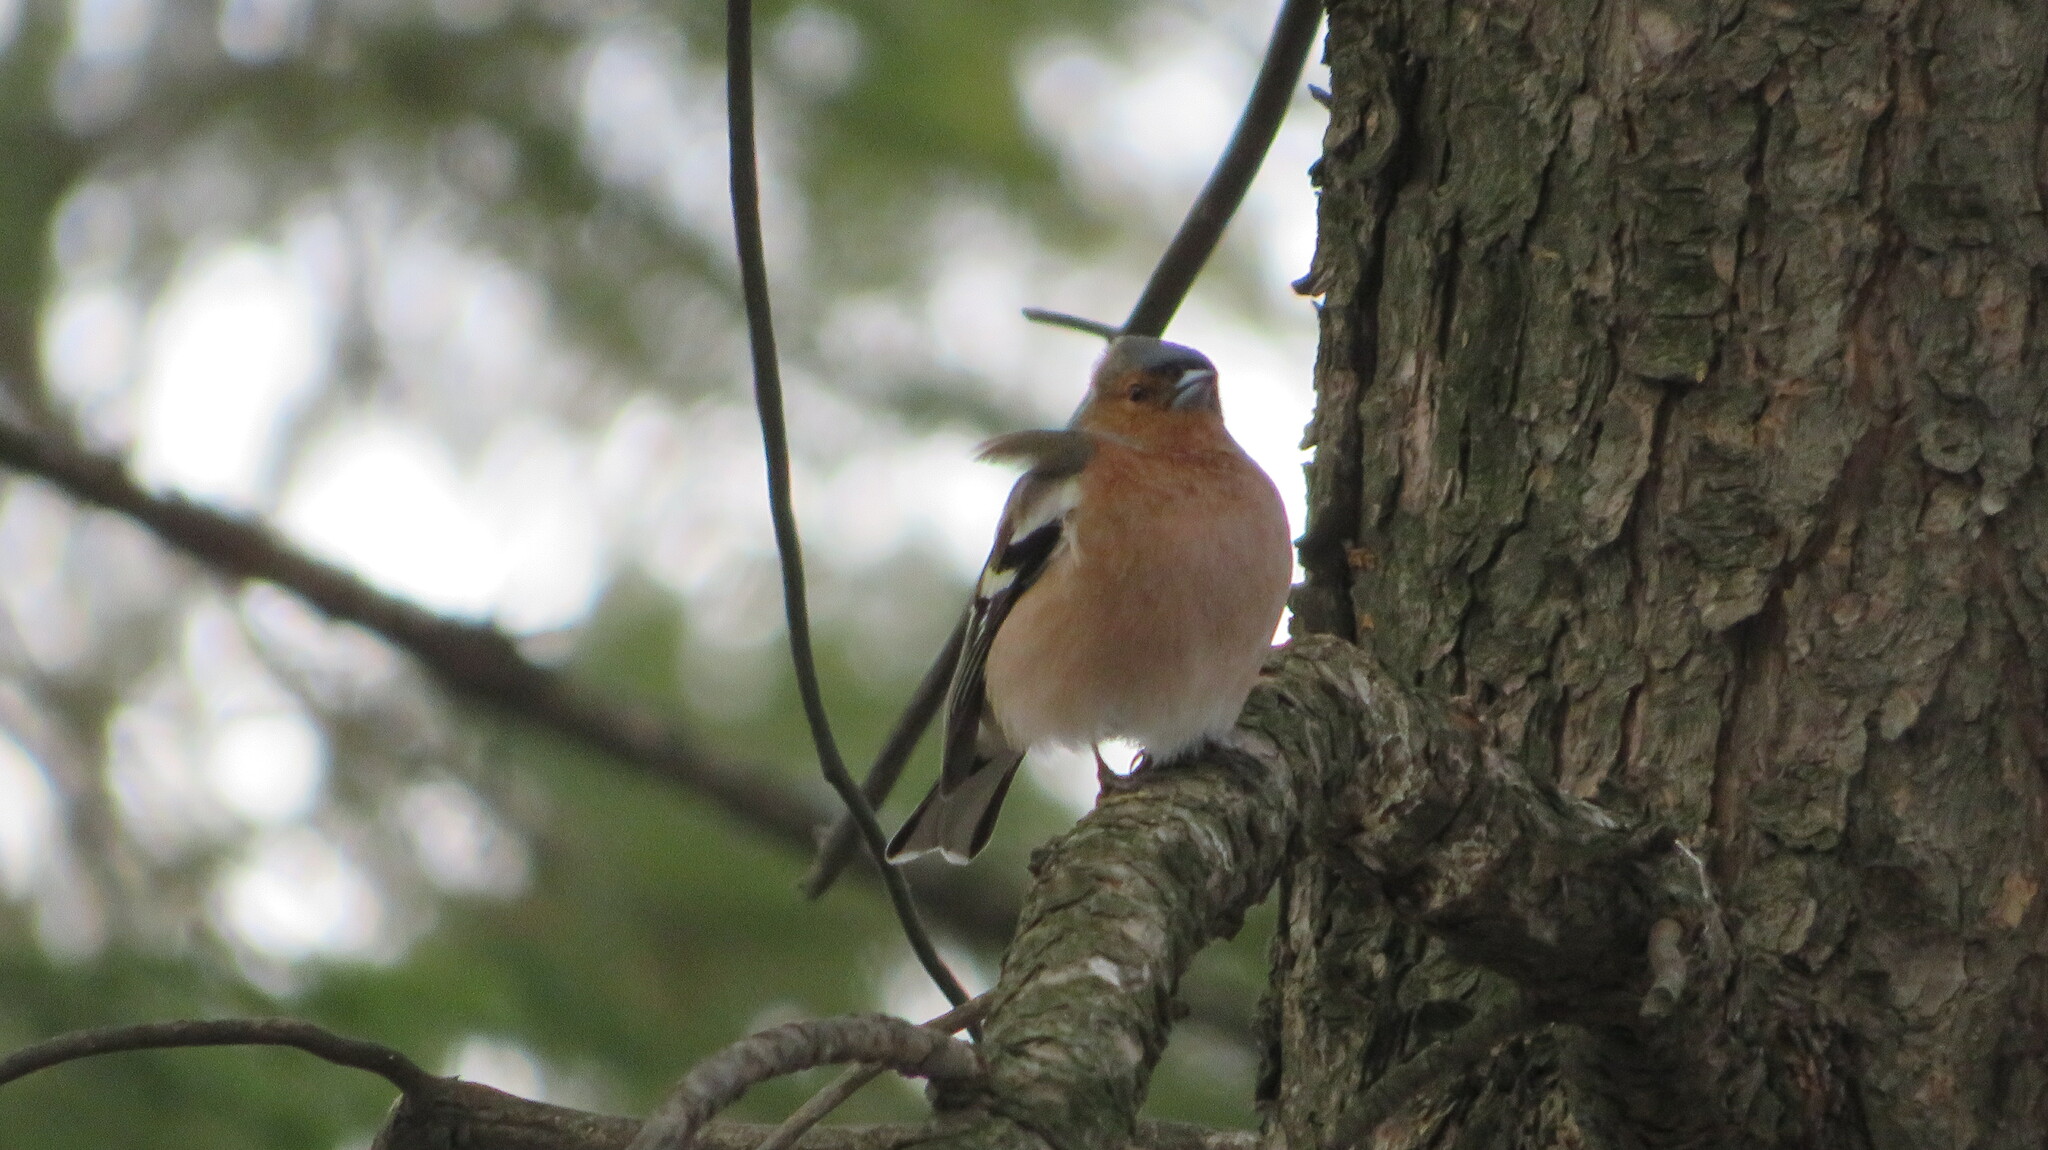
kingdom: Animalia
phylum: Chordata
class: Aves
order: Passeriformes
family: Fringillidae
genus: Fringilla
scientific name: Fringilla coelebs
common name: Common chaffinch
